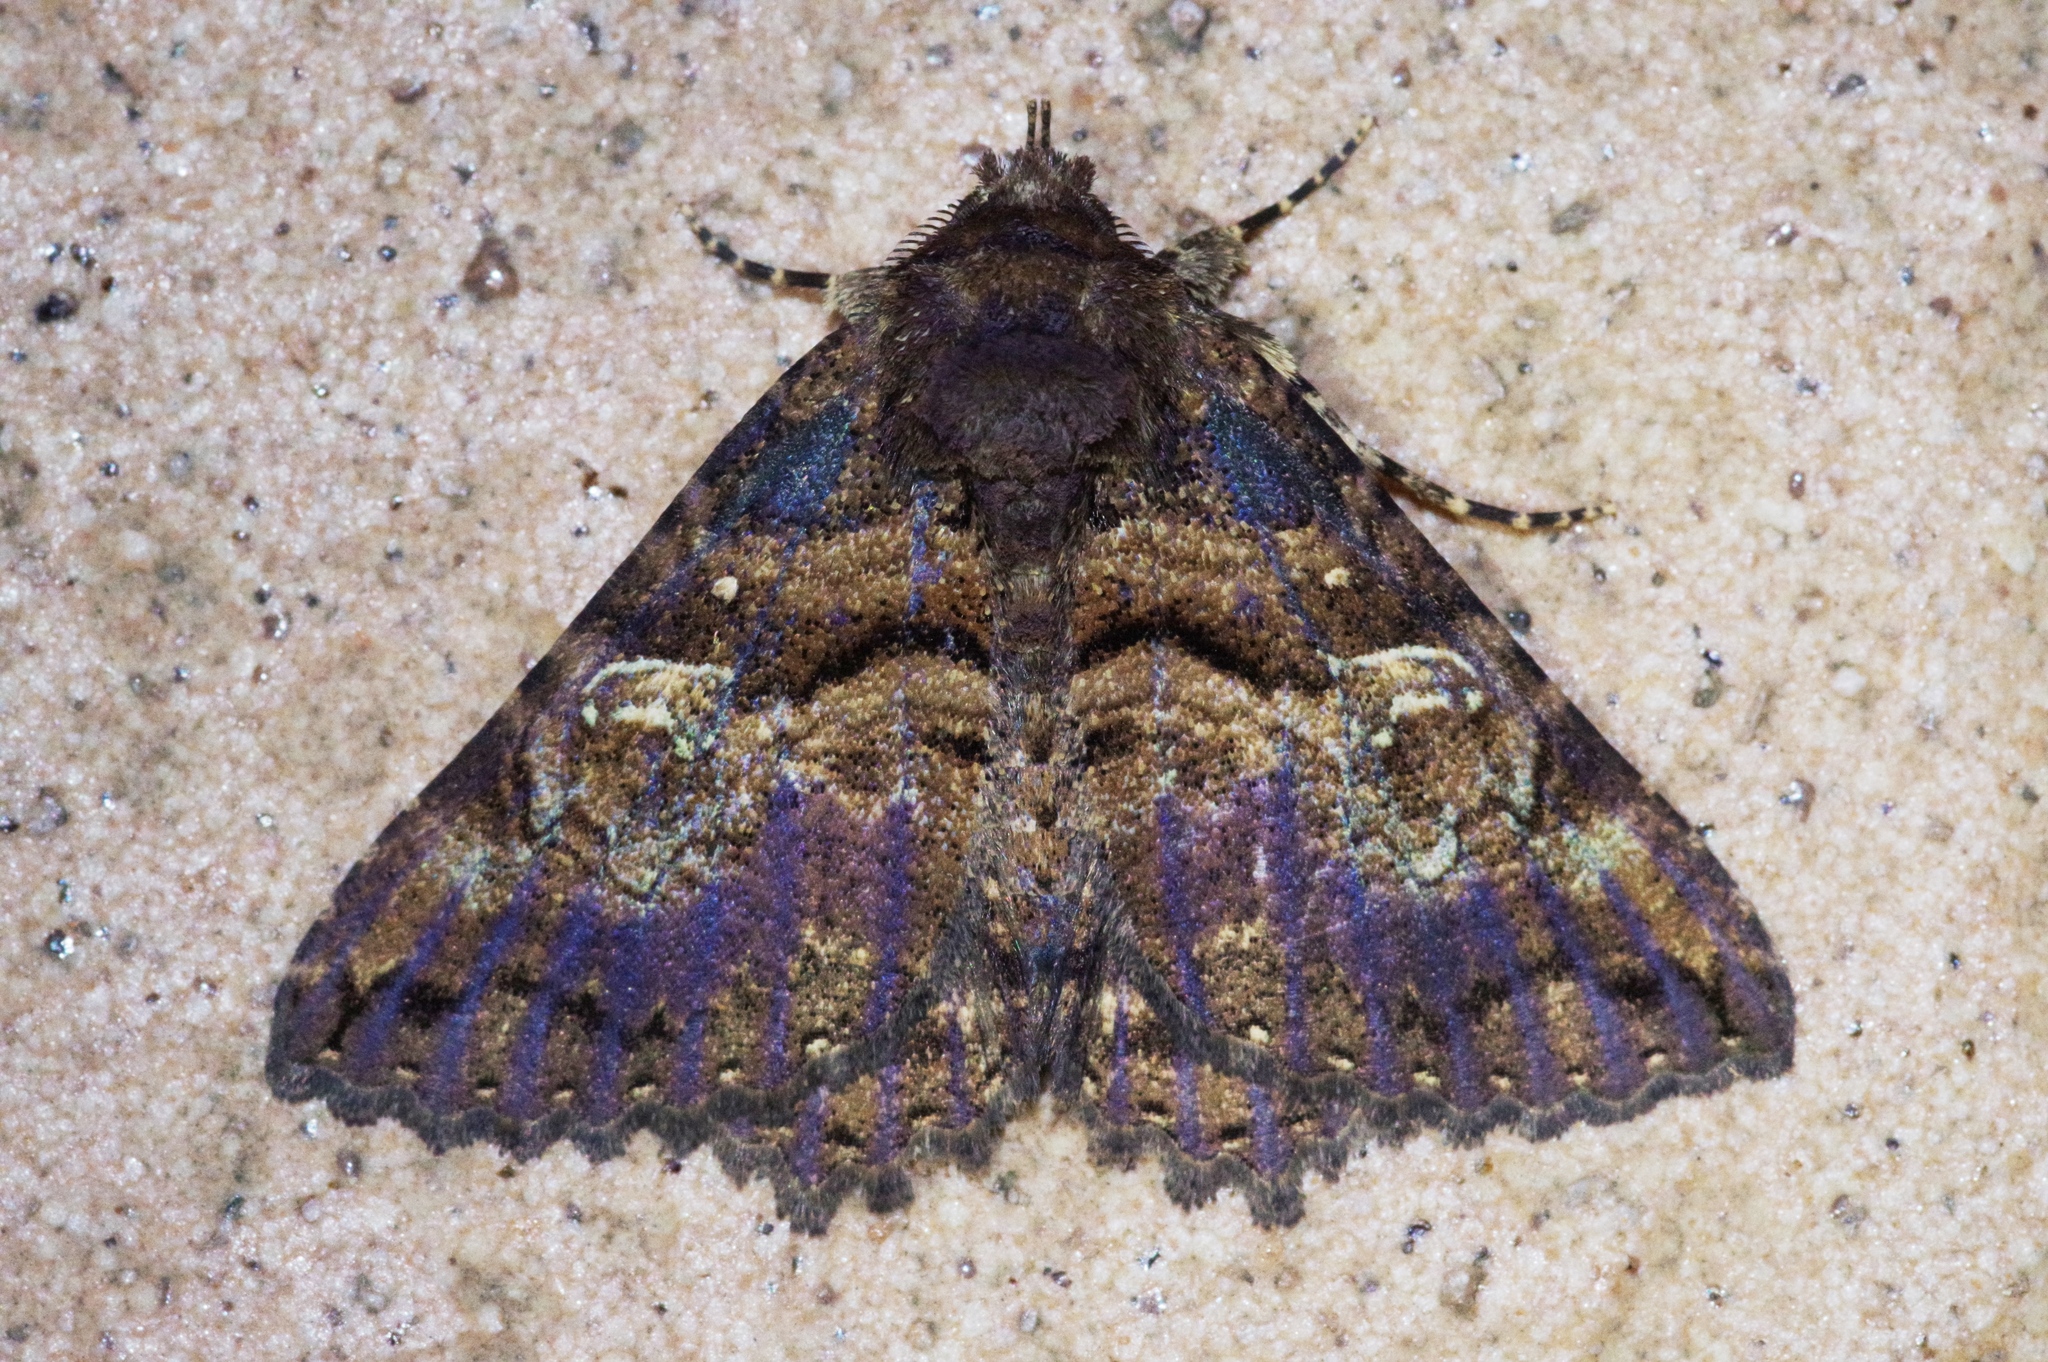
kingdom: Animalia
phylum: Arthropoda
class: Insecta
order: Lepidoptera
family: Erebidae
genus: Daddala
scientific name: Daddala lucilla
